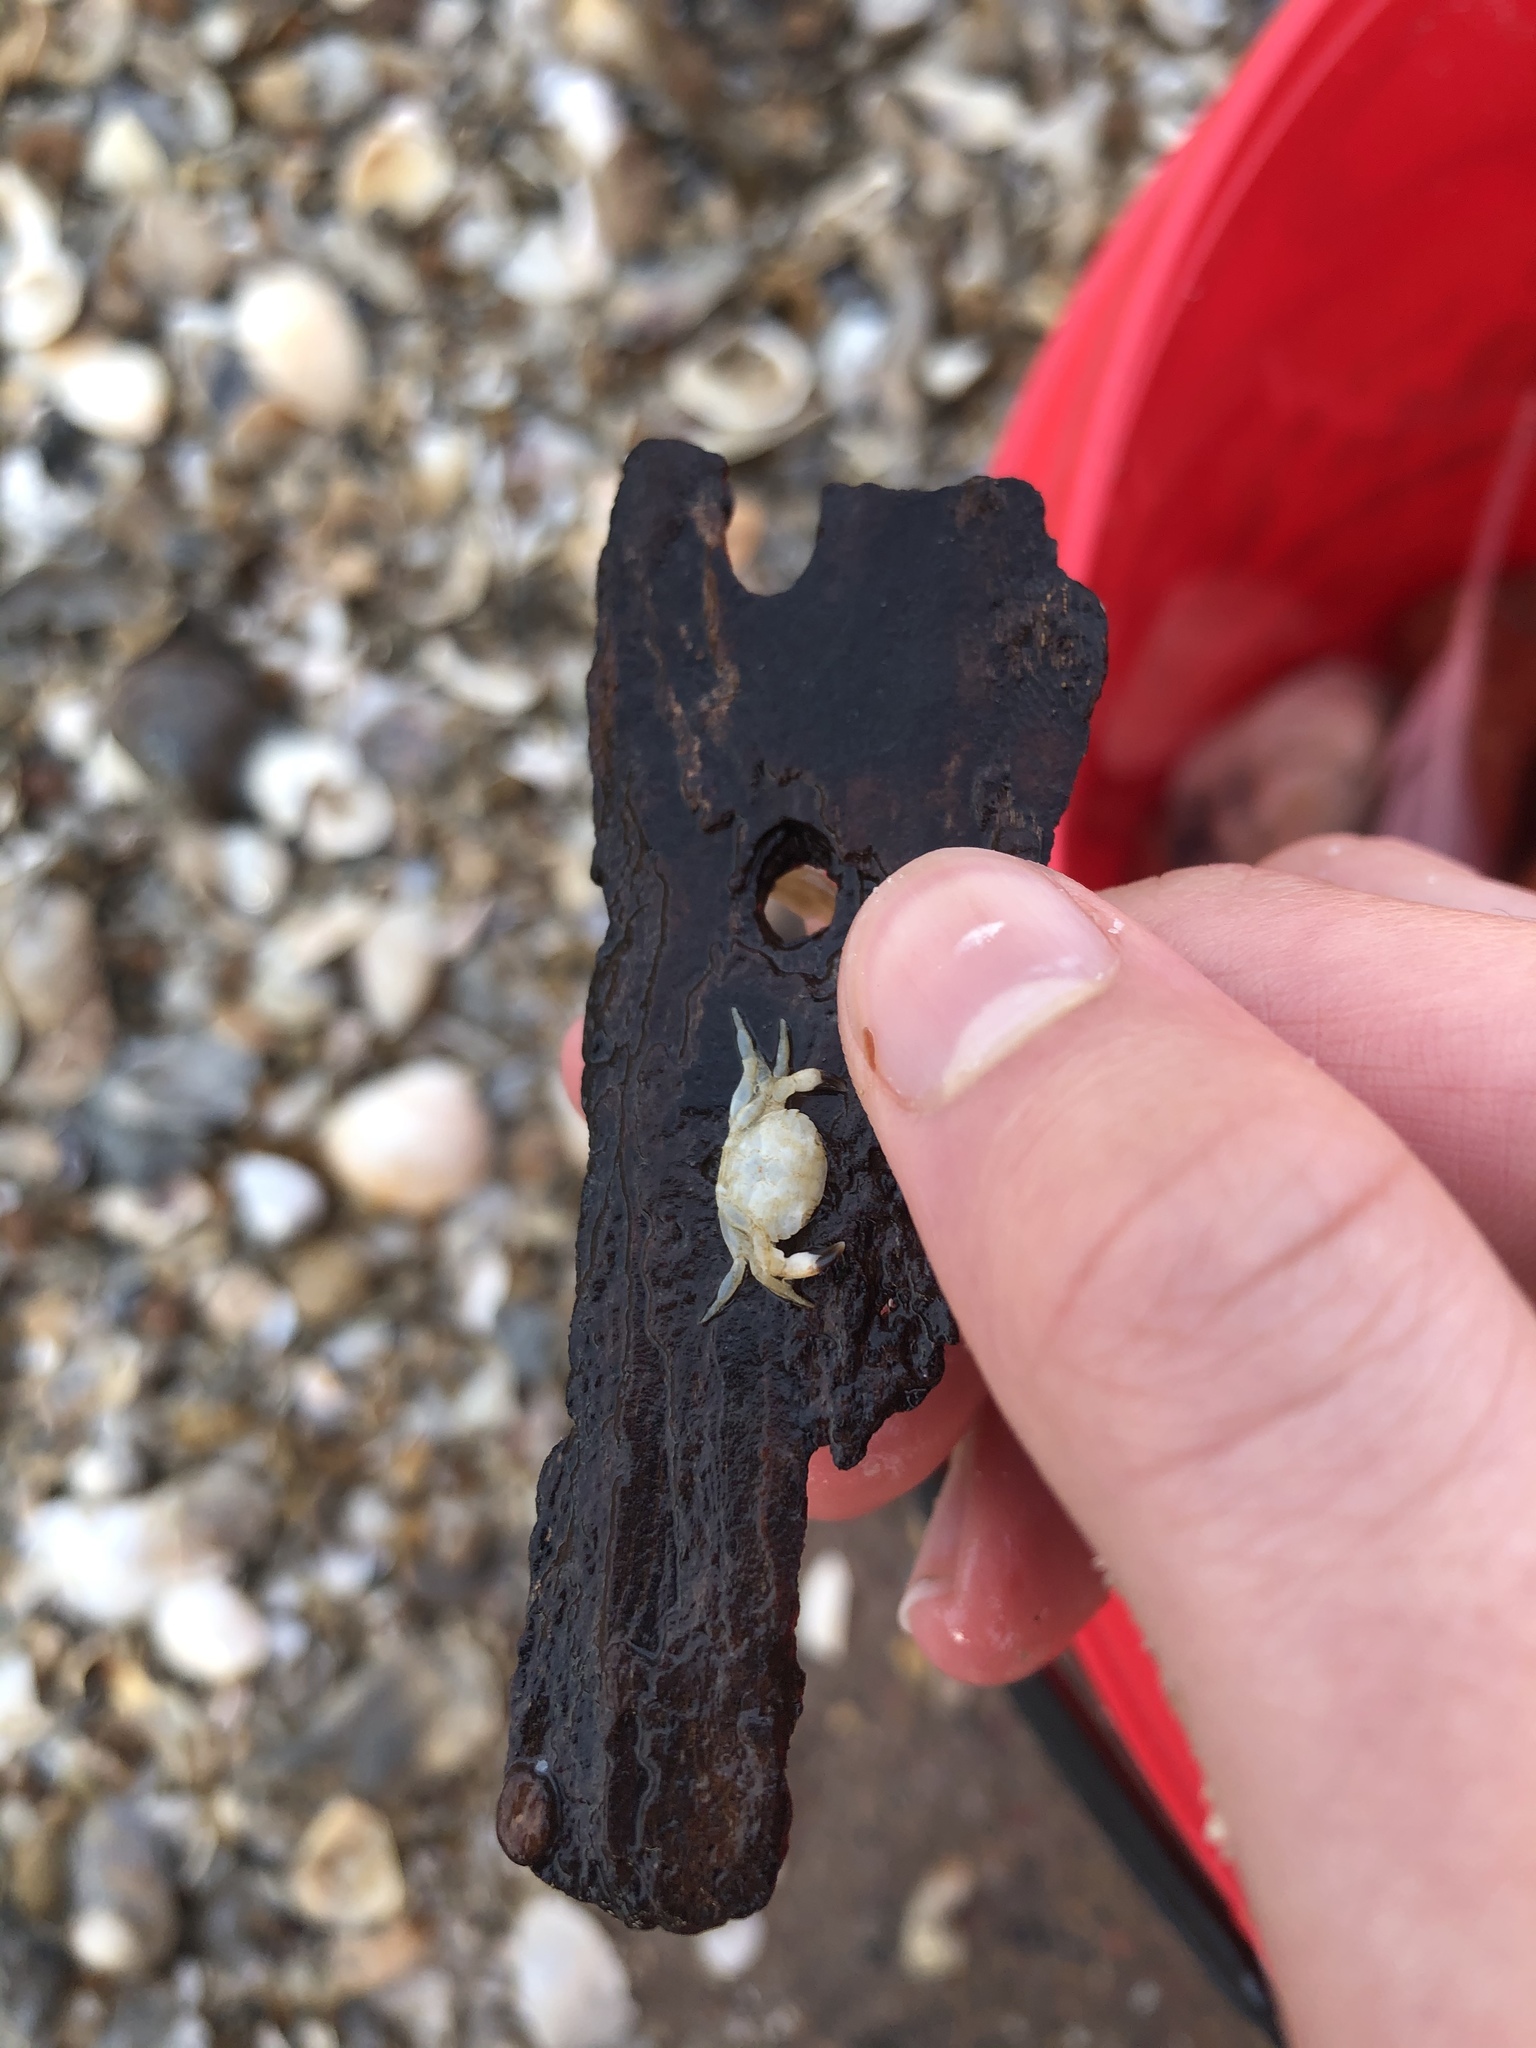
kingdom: Animalia
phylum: Arthropoda
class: Malacostraca
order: Decapoda
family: Portunidae
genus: Callinectes
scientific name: Callinectes sapidus
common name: Blue crab
